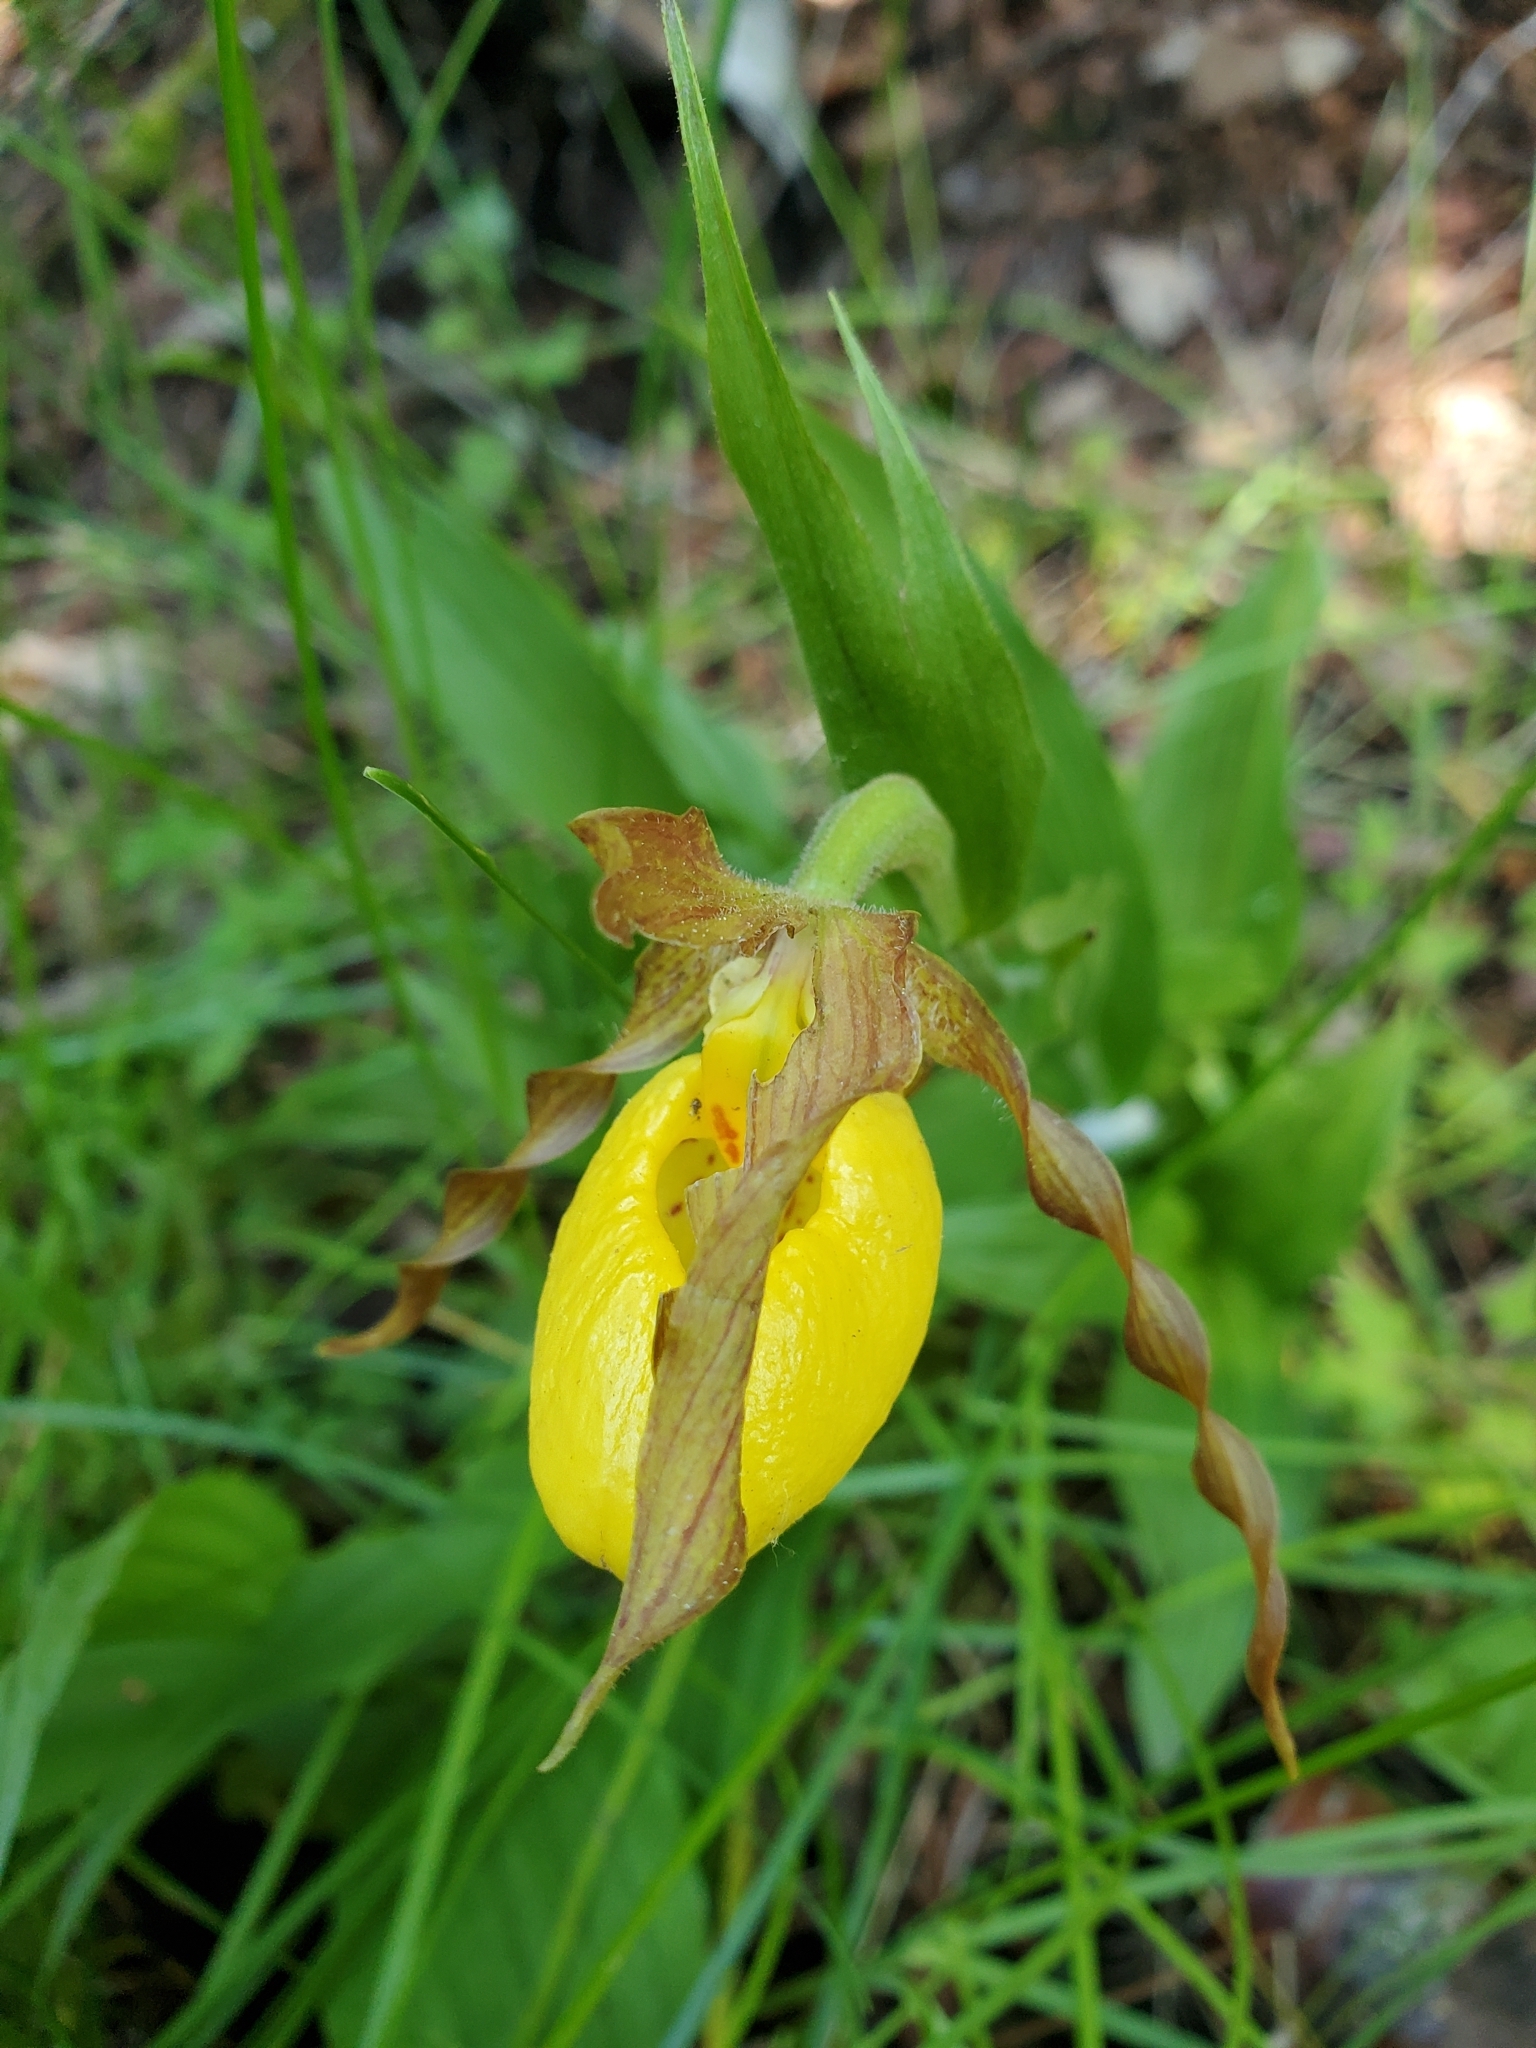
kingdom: Plantae
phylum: Tracheophyta
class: Liliopsida
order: Asparagales
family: Orchidaceae
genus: Cypripedium
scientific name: Cypripedium parviflorum
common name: American yellow lady's-slipper
